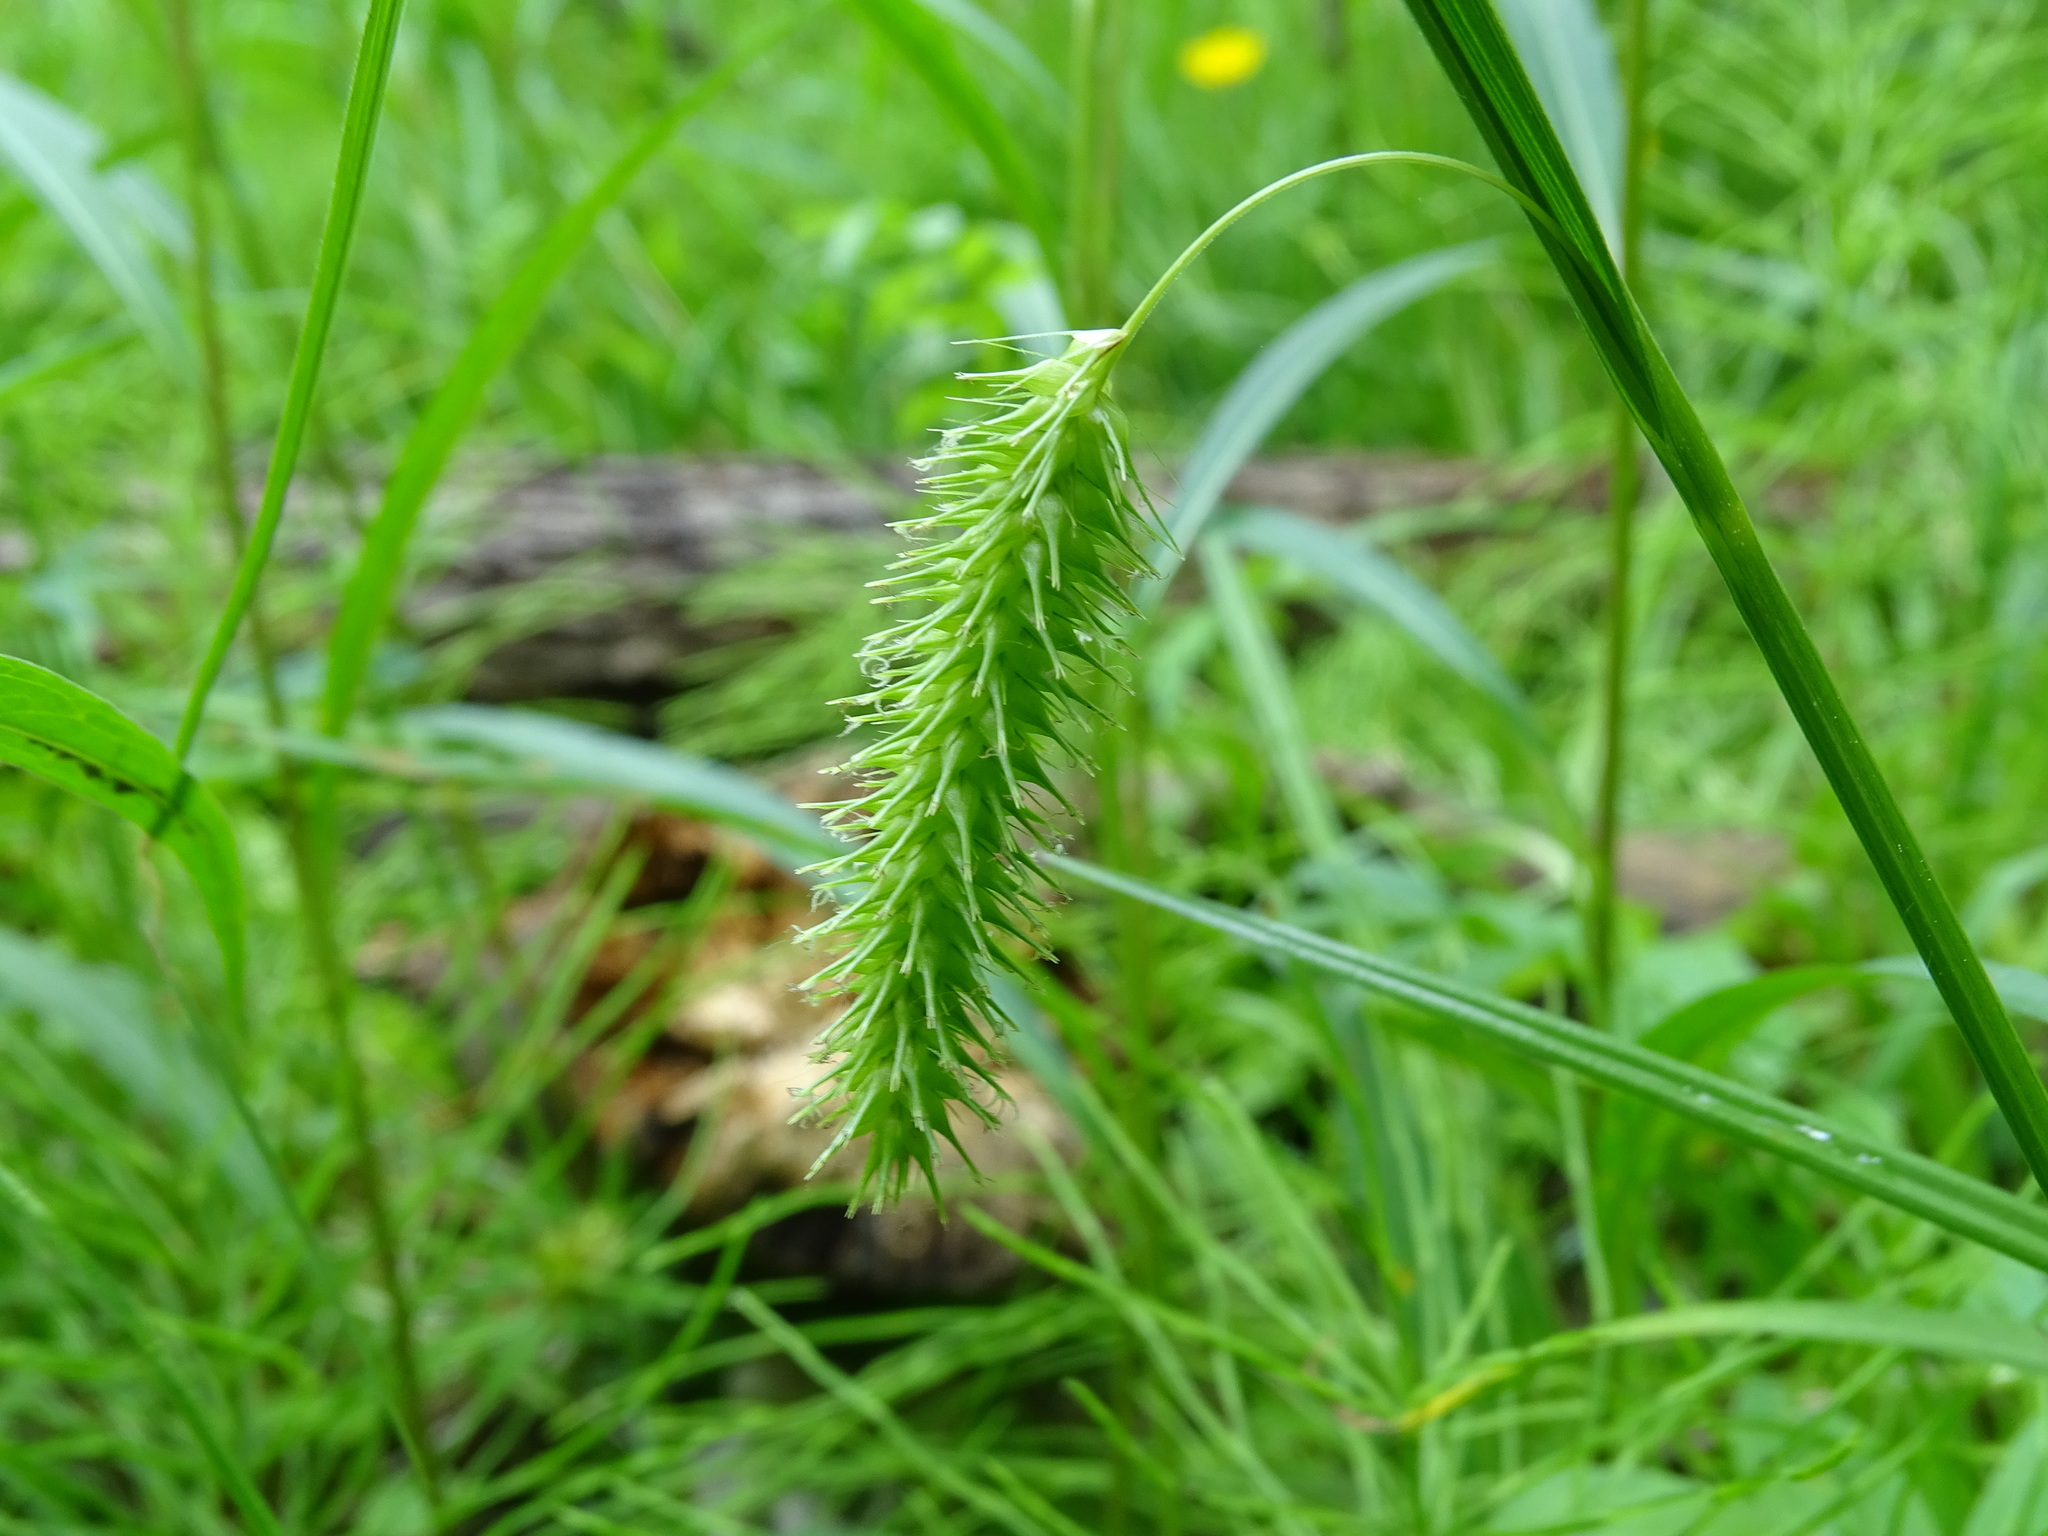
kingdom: Plantae
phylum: Tracheophyta
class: Liliopsida
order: Poales
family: Cyperaceae
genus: Carex
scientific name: Carex hystericina
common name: Bottlebrush sedge
